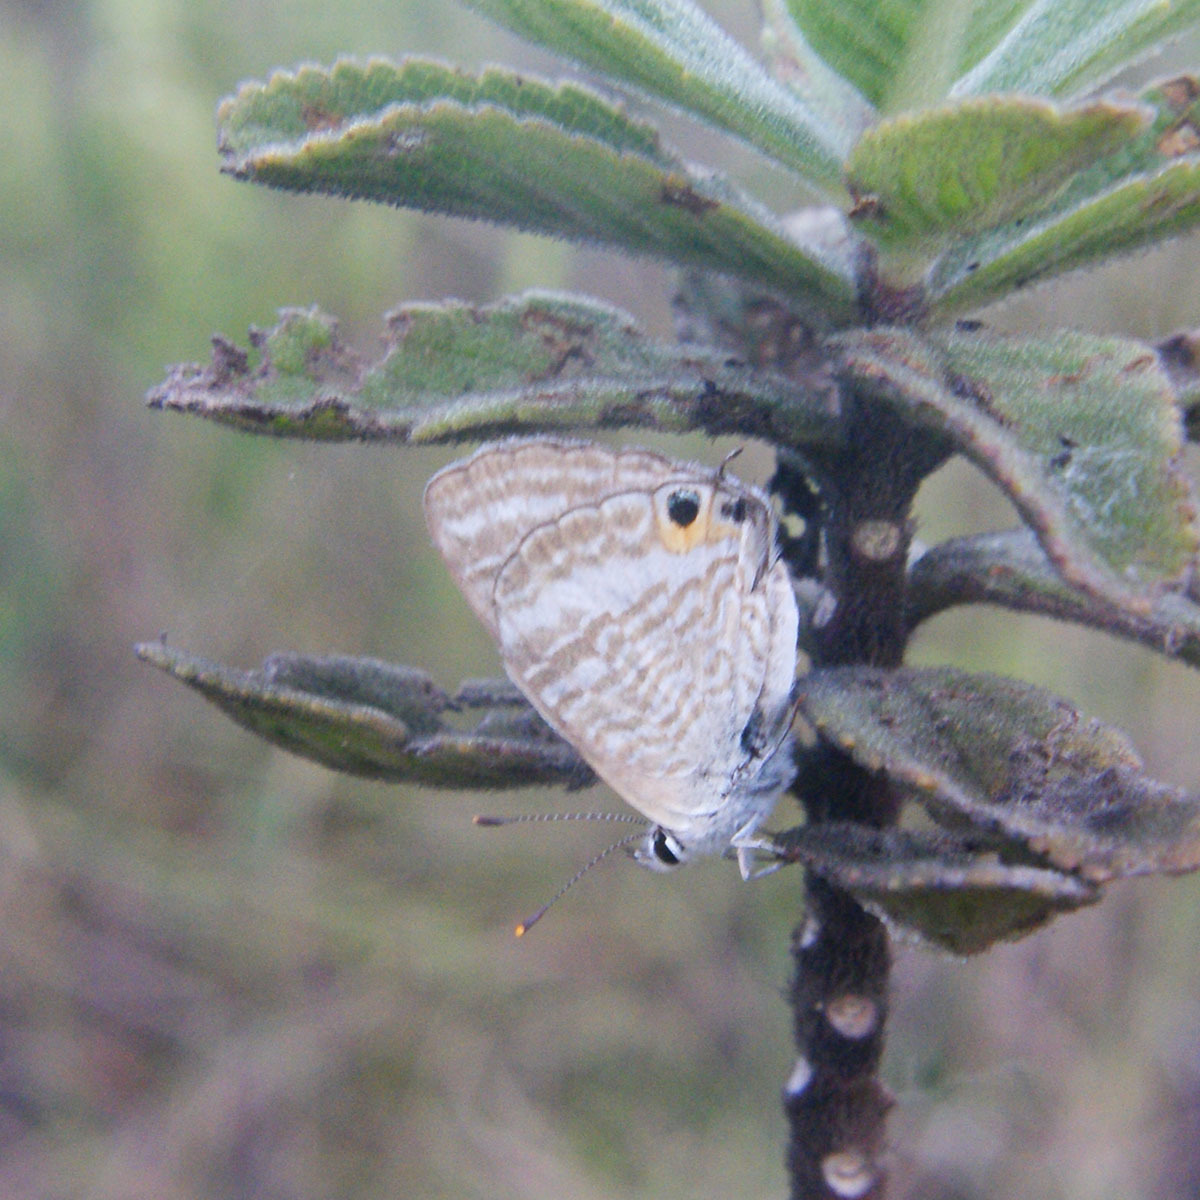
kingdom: Animalia
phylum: Arthropoda
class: Insecta
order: Lepidoptera
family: Lycaenidae
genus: Lampides
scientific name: Lampides boeticus
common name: Long-tailed blue
